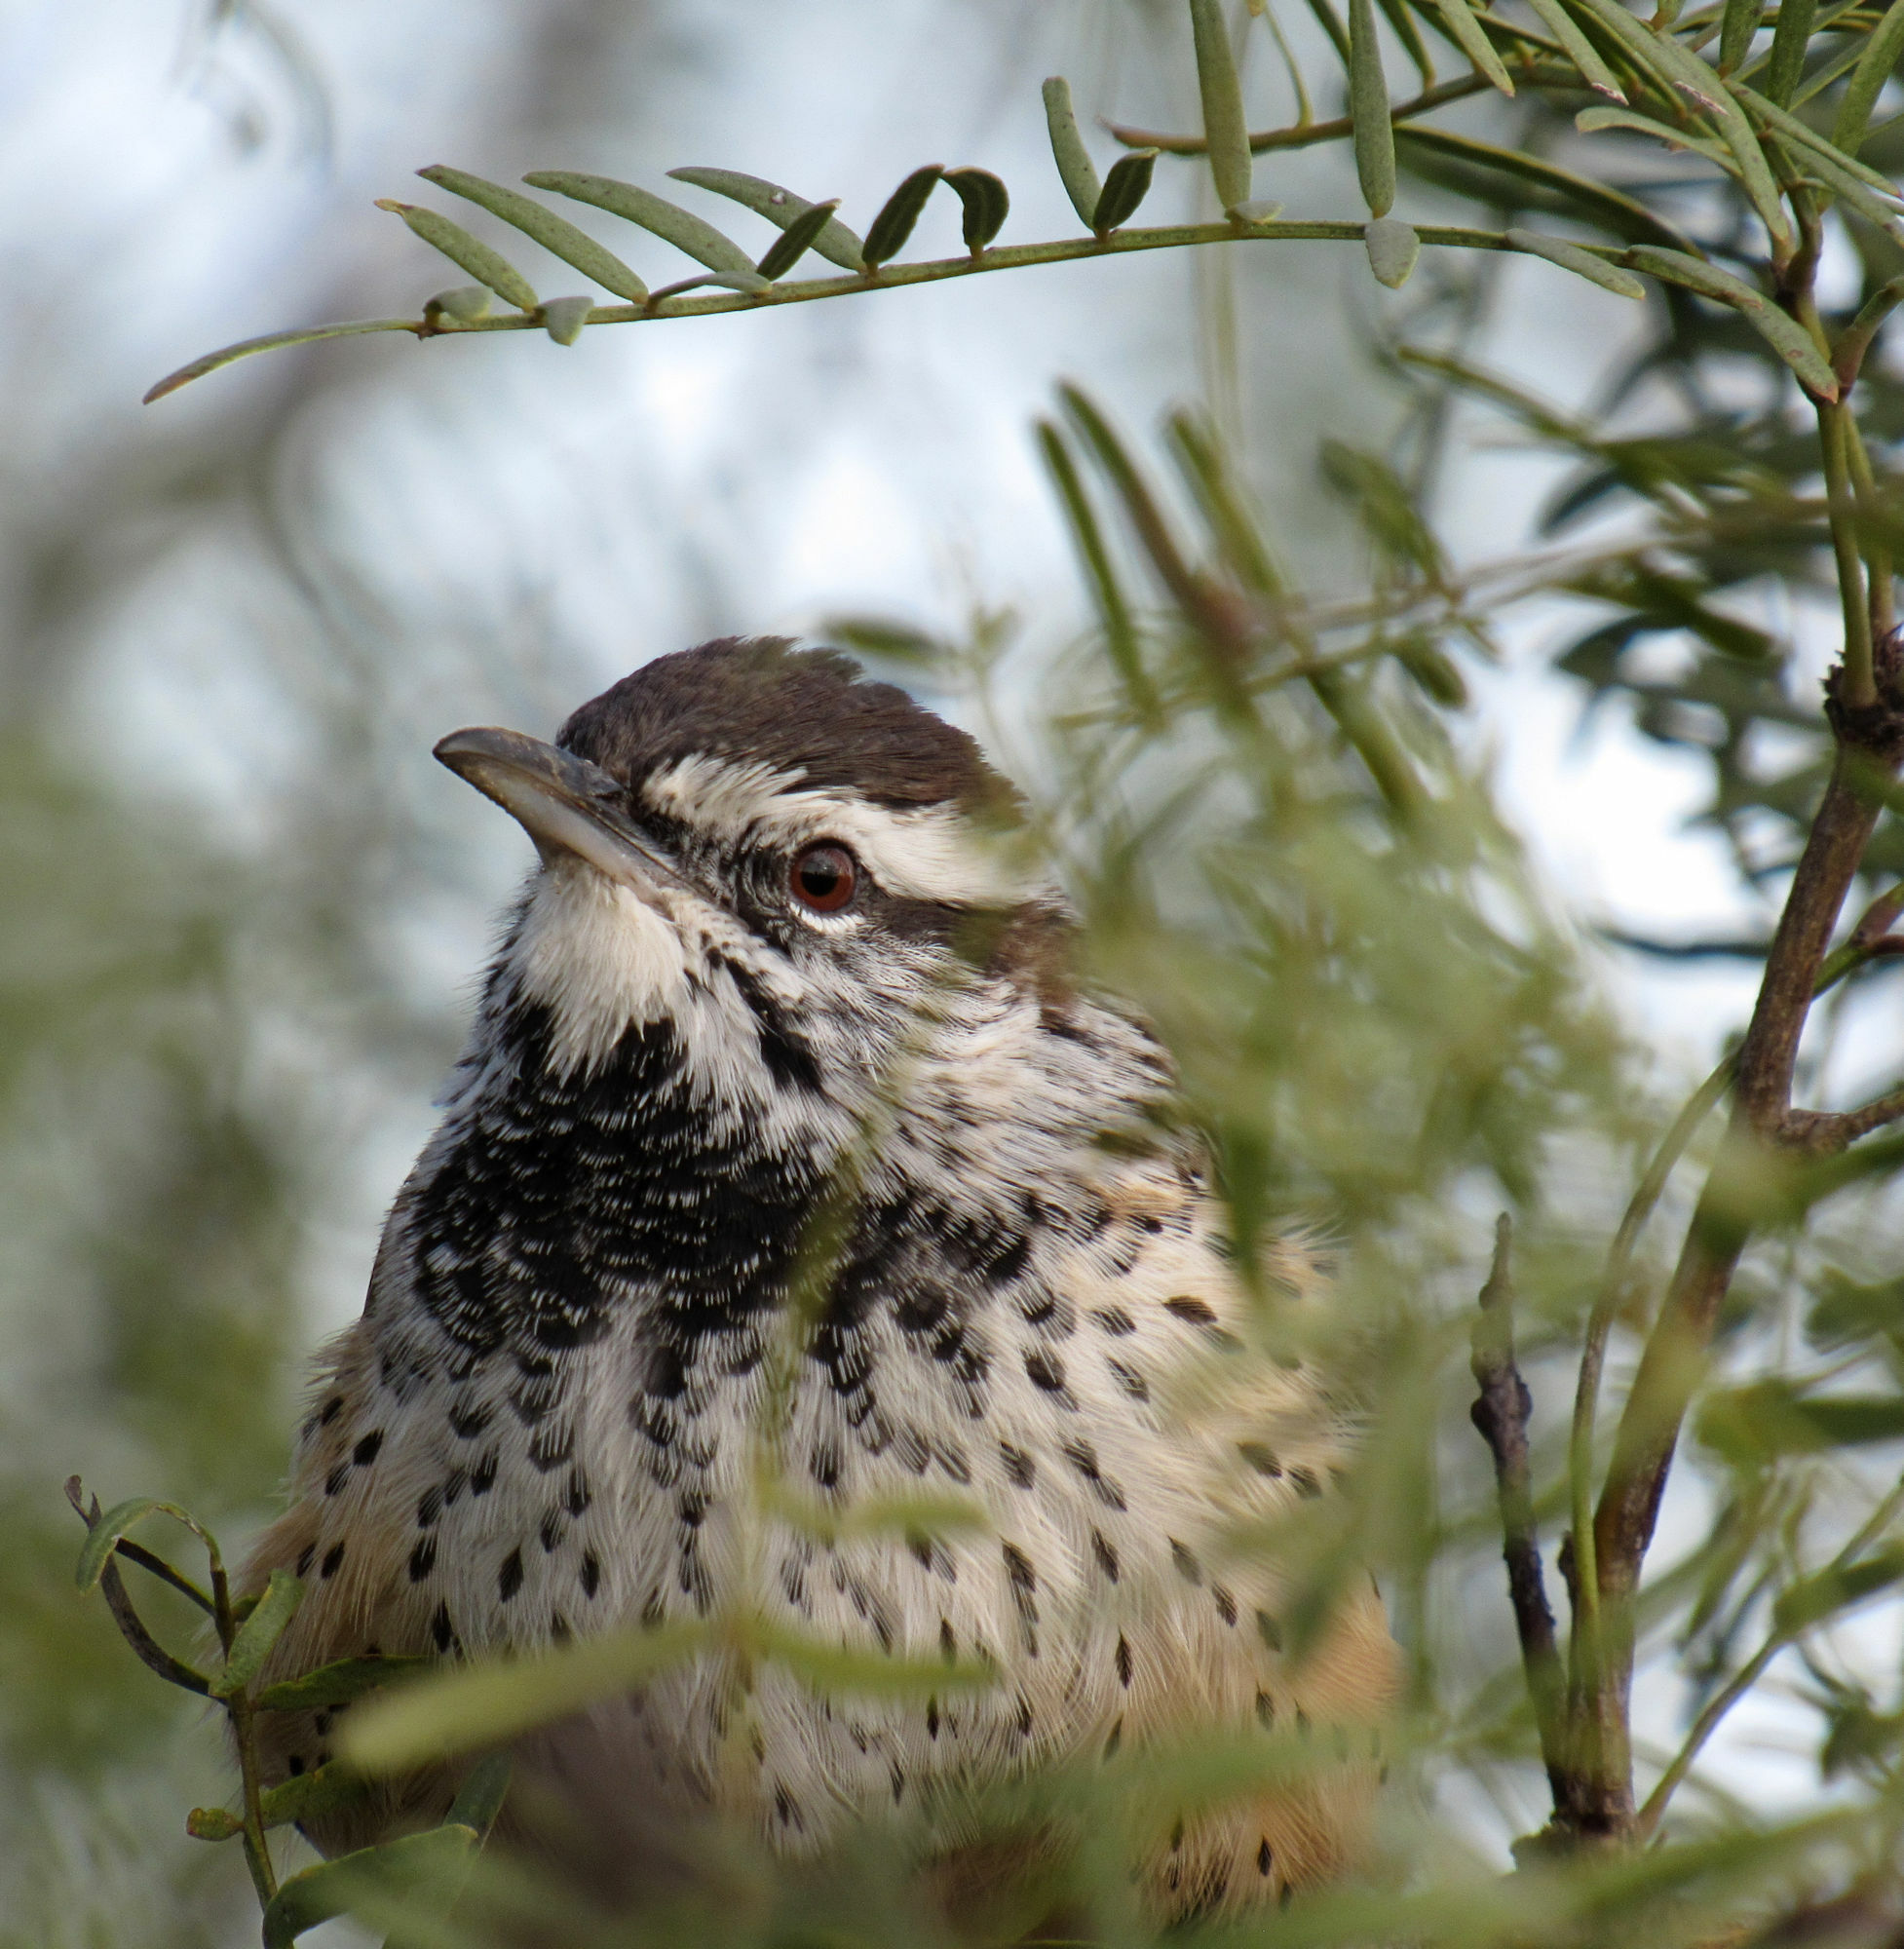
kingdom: Animalia
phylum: Chordata
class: Aves
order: Passeriformes
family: Troglodytidae
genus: Campylorhynchus
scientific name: Campylorhynchus brunneicapillus
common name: Cactus wren
